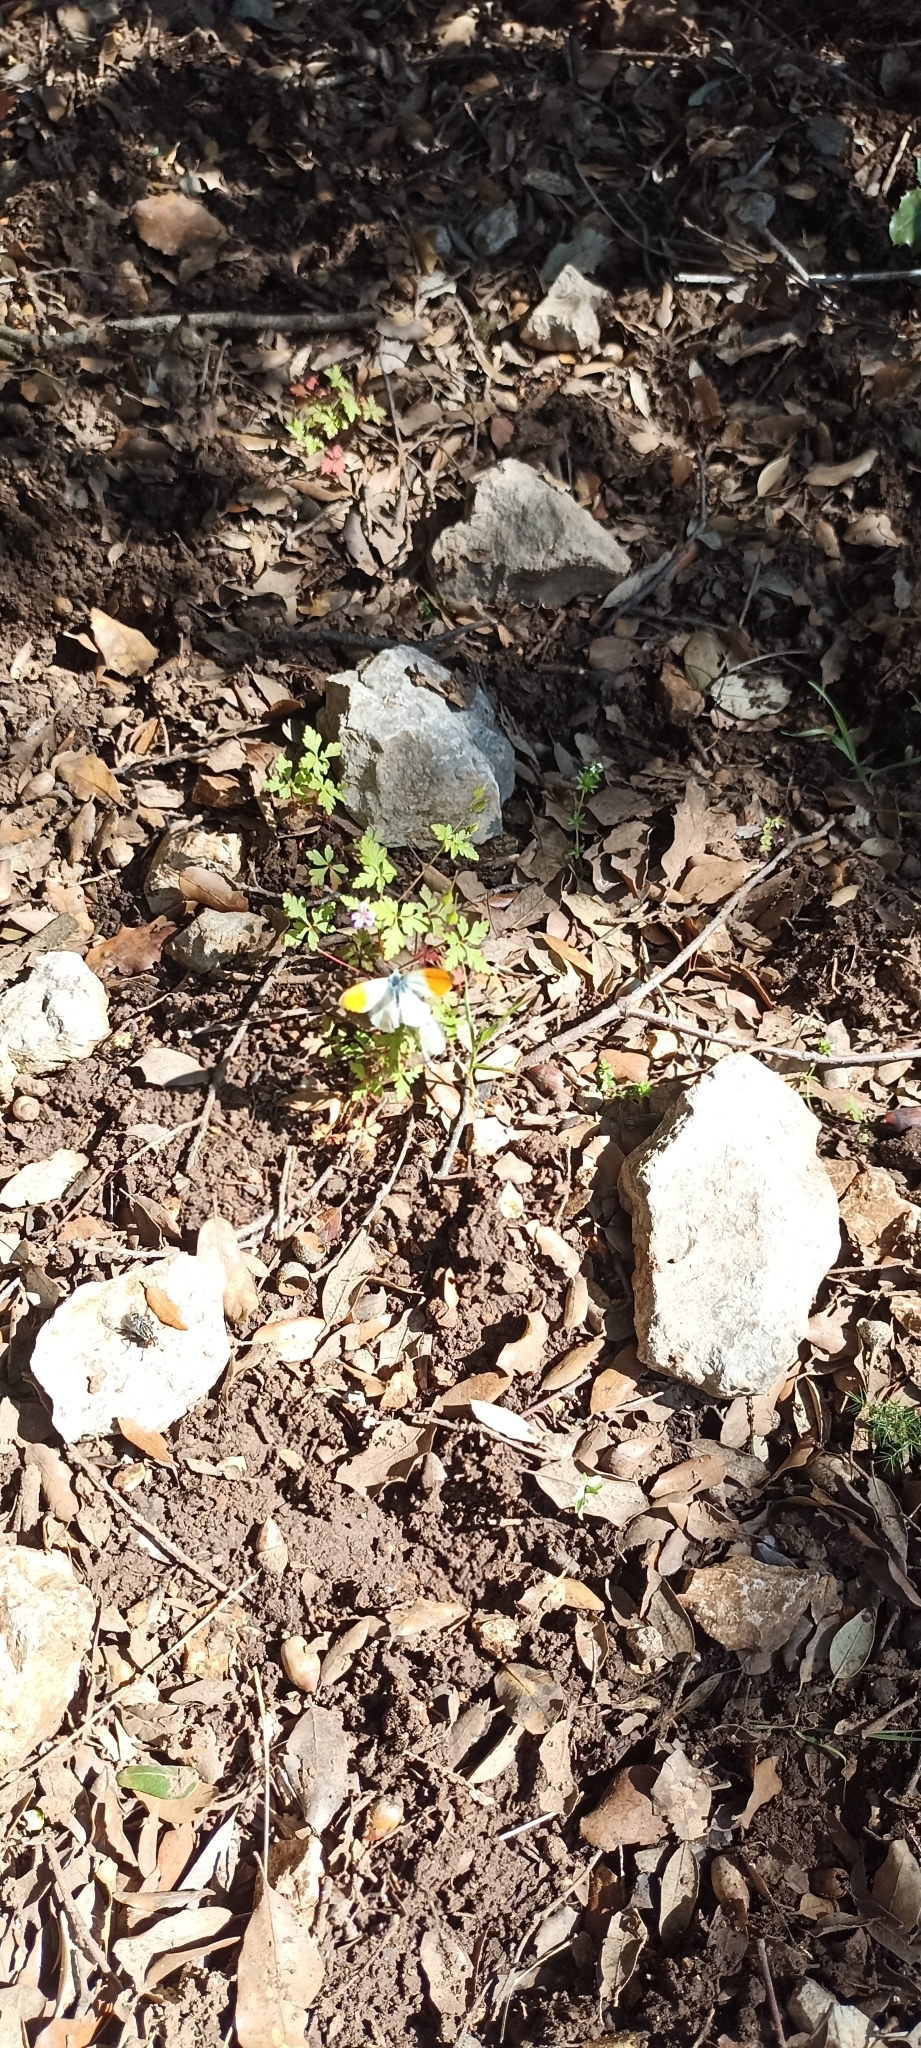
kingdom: Animalia
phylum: Arthropoda
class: Insecta
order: Lepidoptera
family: Pieridae
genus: Anthocharis
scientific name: Anthocharis cardamines
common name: Orange-tip
